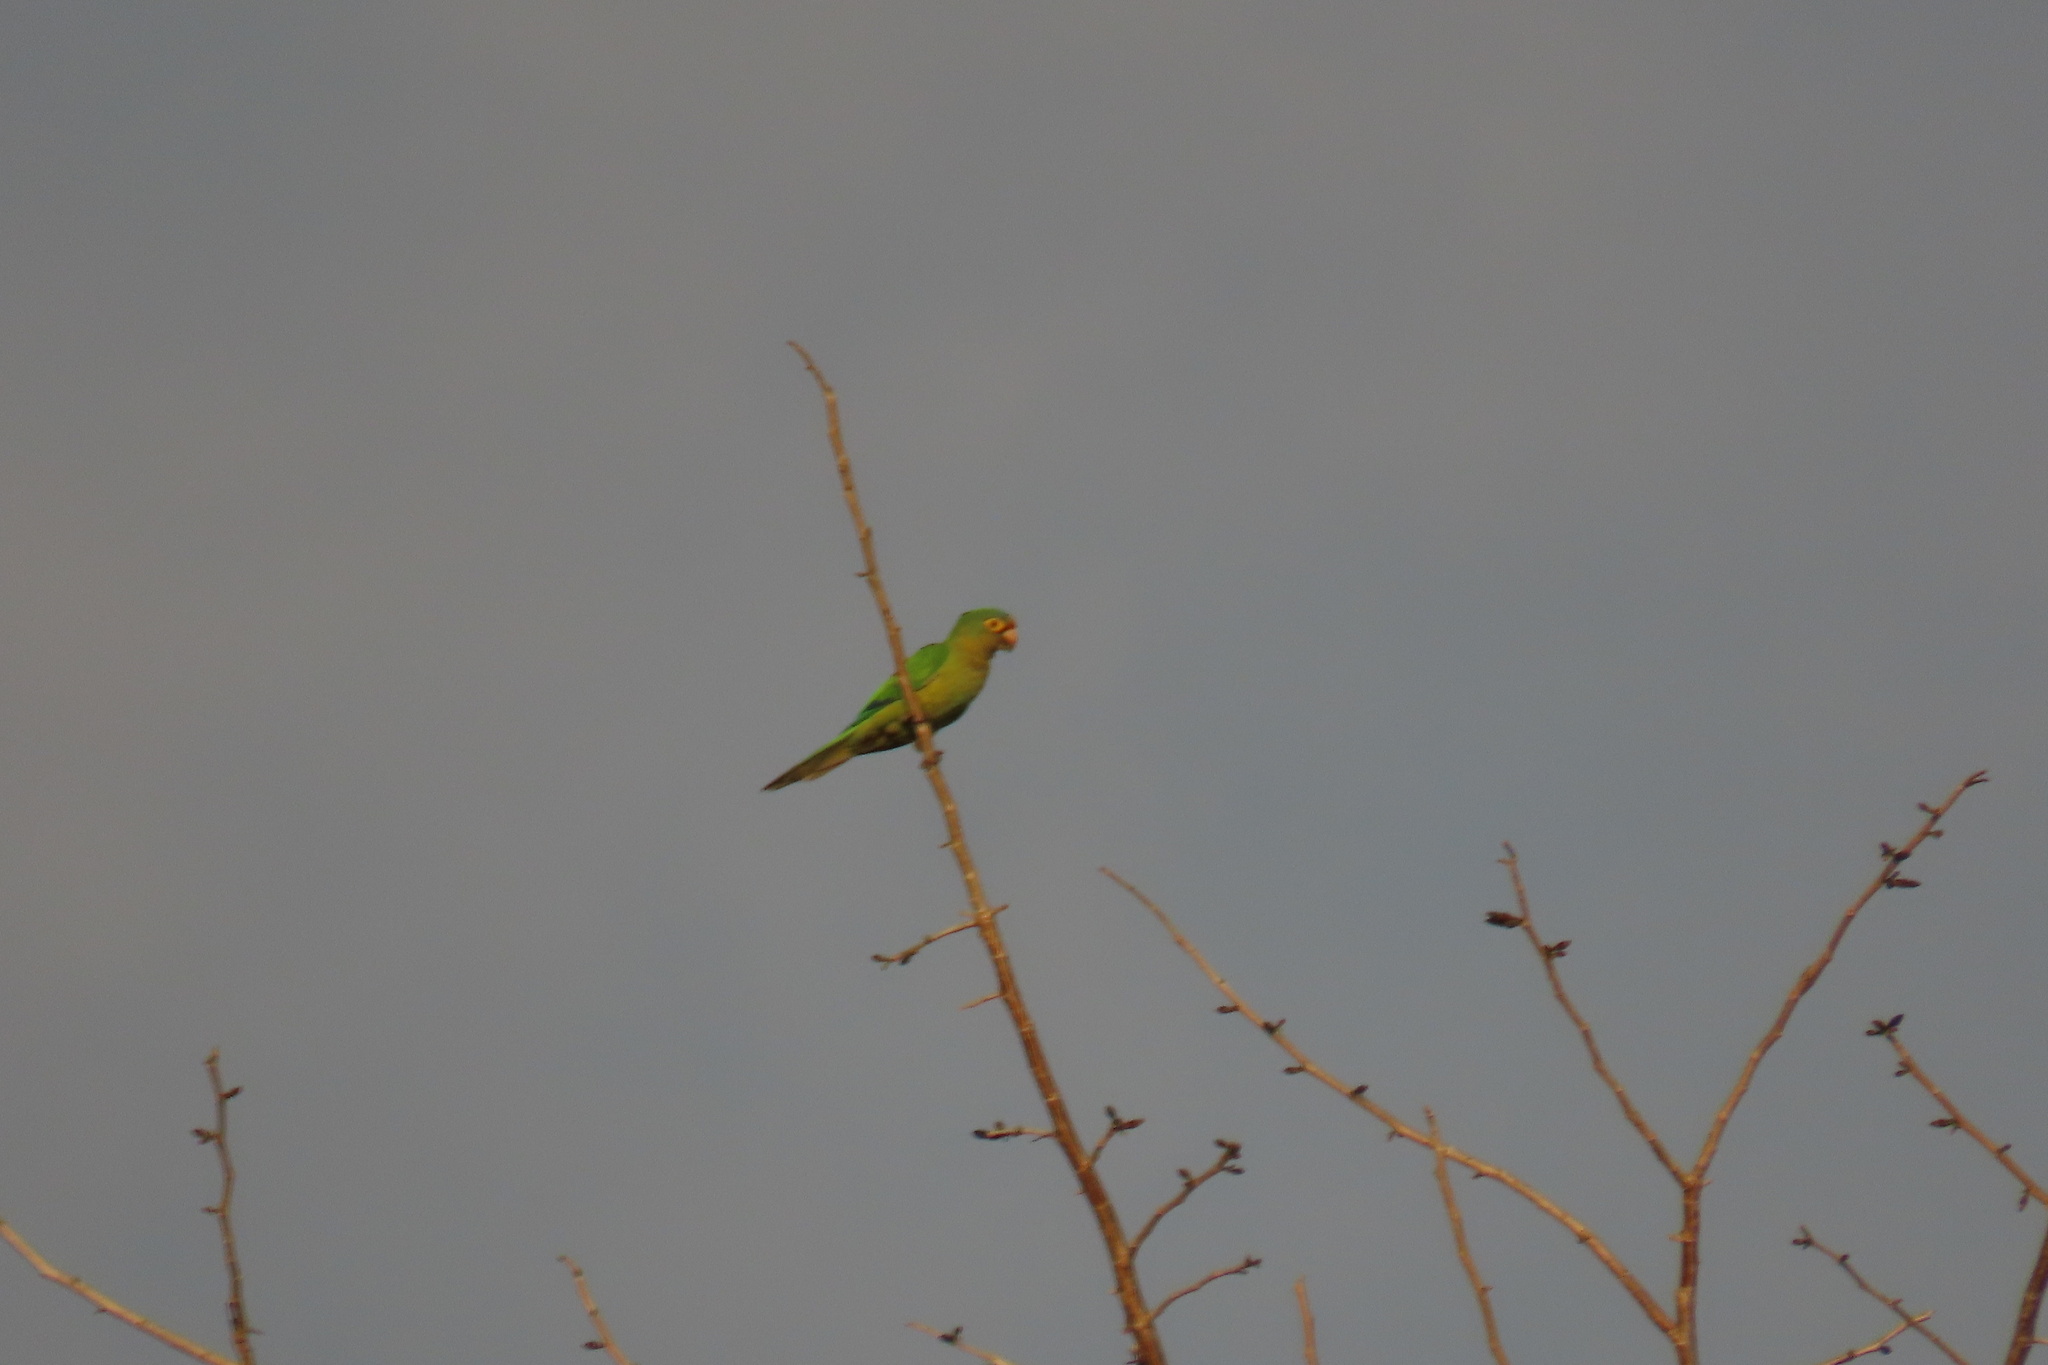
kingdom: Animalia
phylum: Chordata
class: Aves
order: Psittaciformes
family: Psittacidae
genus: Aratinga
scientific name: Aratinga canicularis
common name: Orange-fronted parakeet
